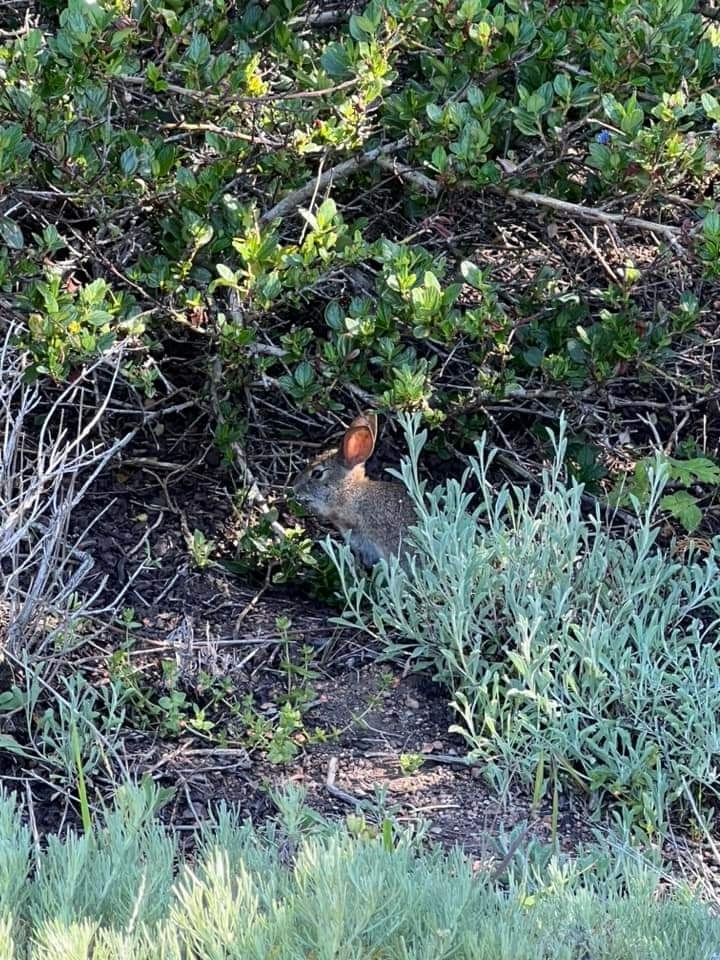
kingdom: Animalia
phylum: Chordata
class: Mammalia
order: Lagomorpha
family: Leporidae
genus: Sylvilagus
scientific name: Sylvilagus bachmani
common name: Brush rabbit
